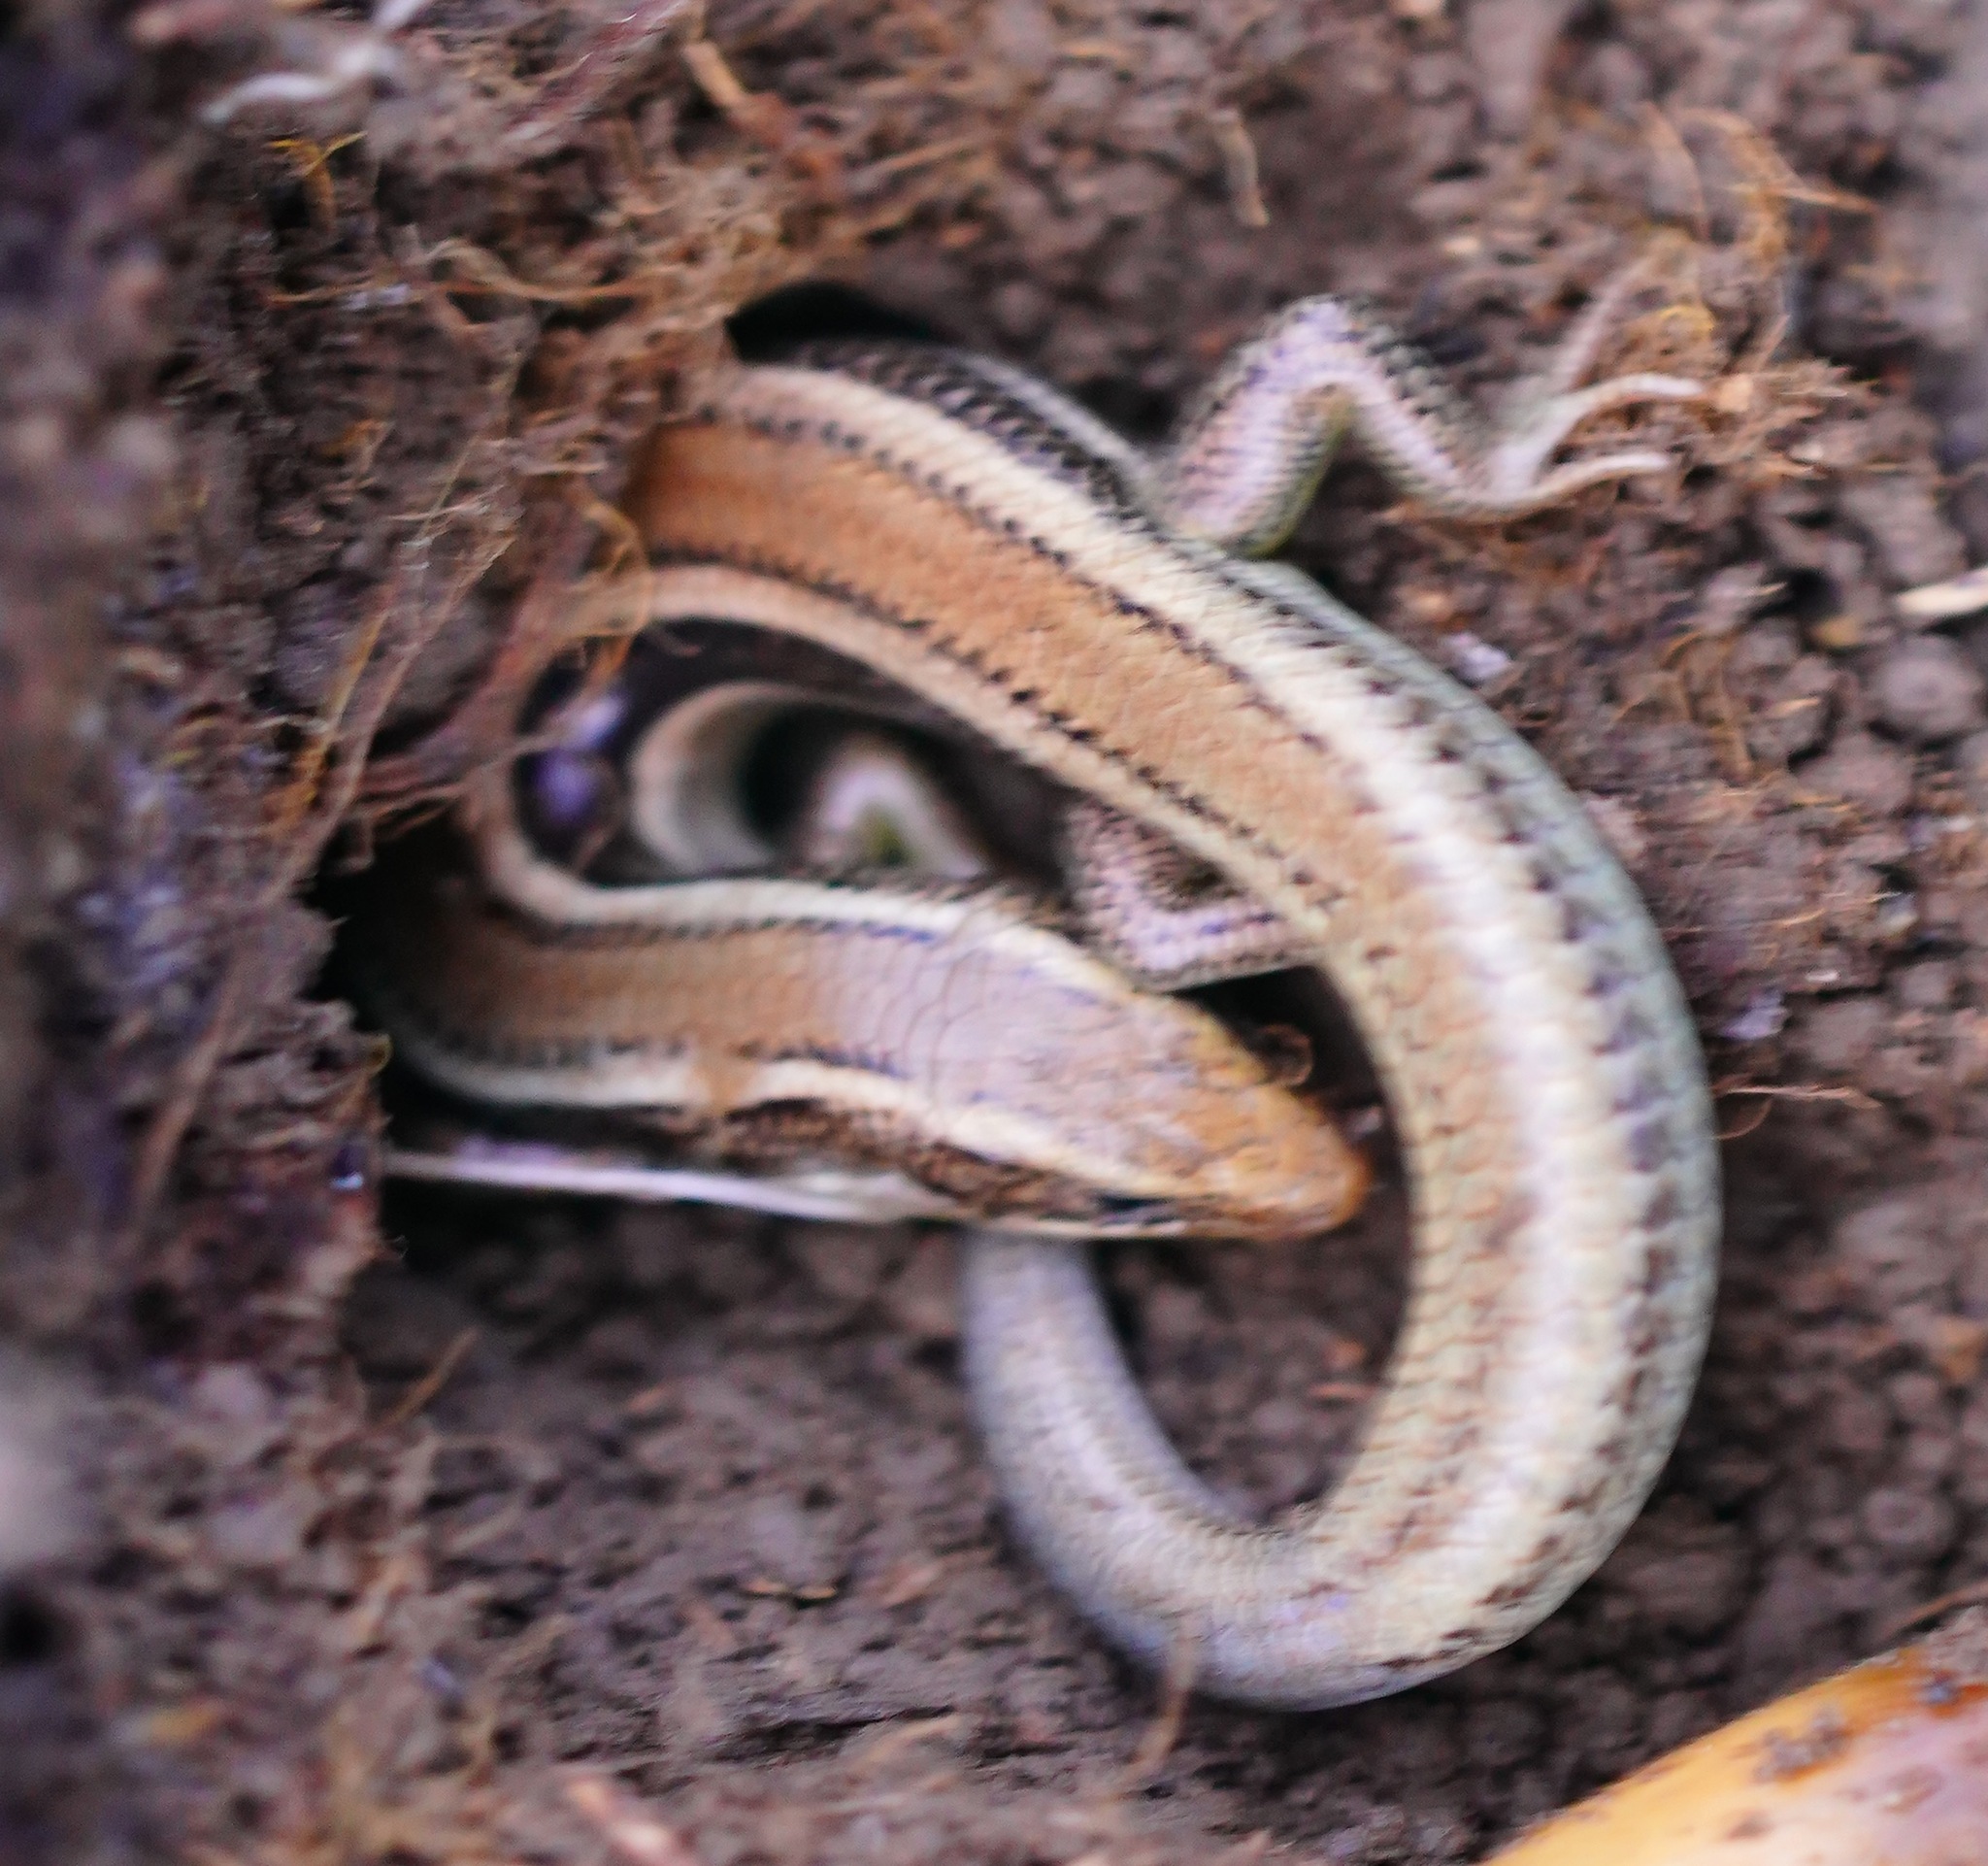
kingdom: Animalia
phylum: Chordata
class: Squamata
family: Scincidae
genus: Plestiodon
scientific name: Plestiodon skiltonianus
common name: Coronado island skink [interparietalis]
